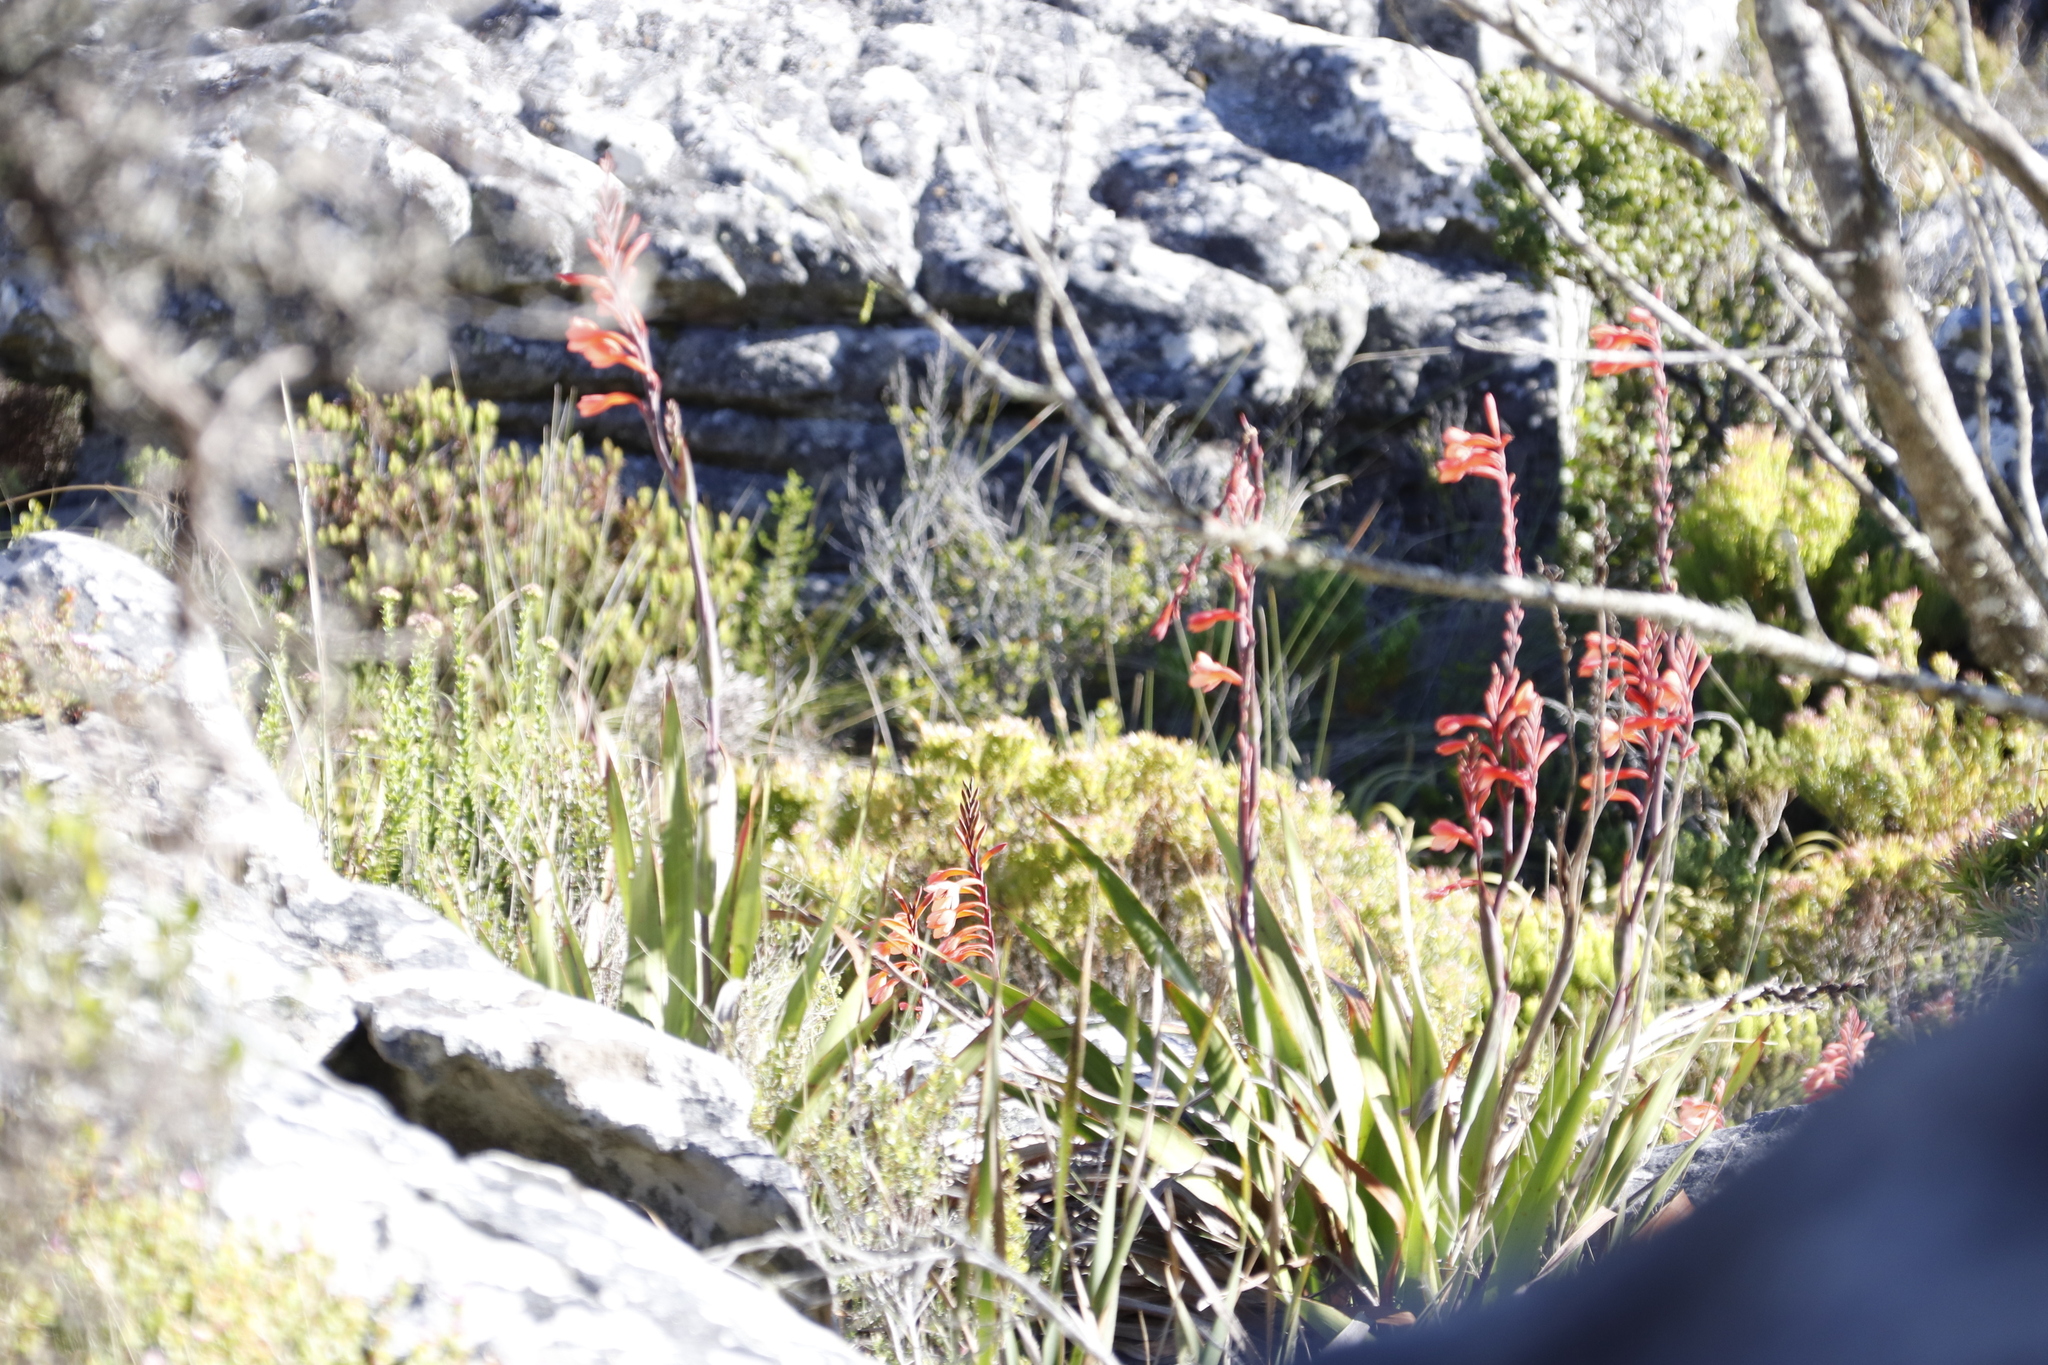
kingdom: Plantae
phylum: Tracheophyta
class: Liliopsida
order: Asparagales
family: Iridaceae
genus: Watsonia
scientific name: Watsonia tabularis
